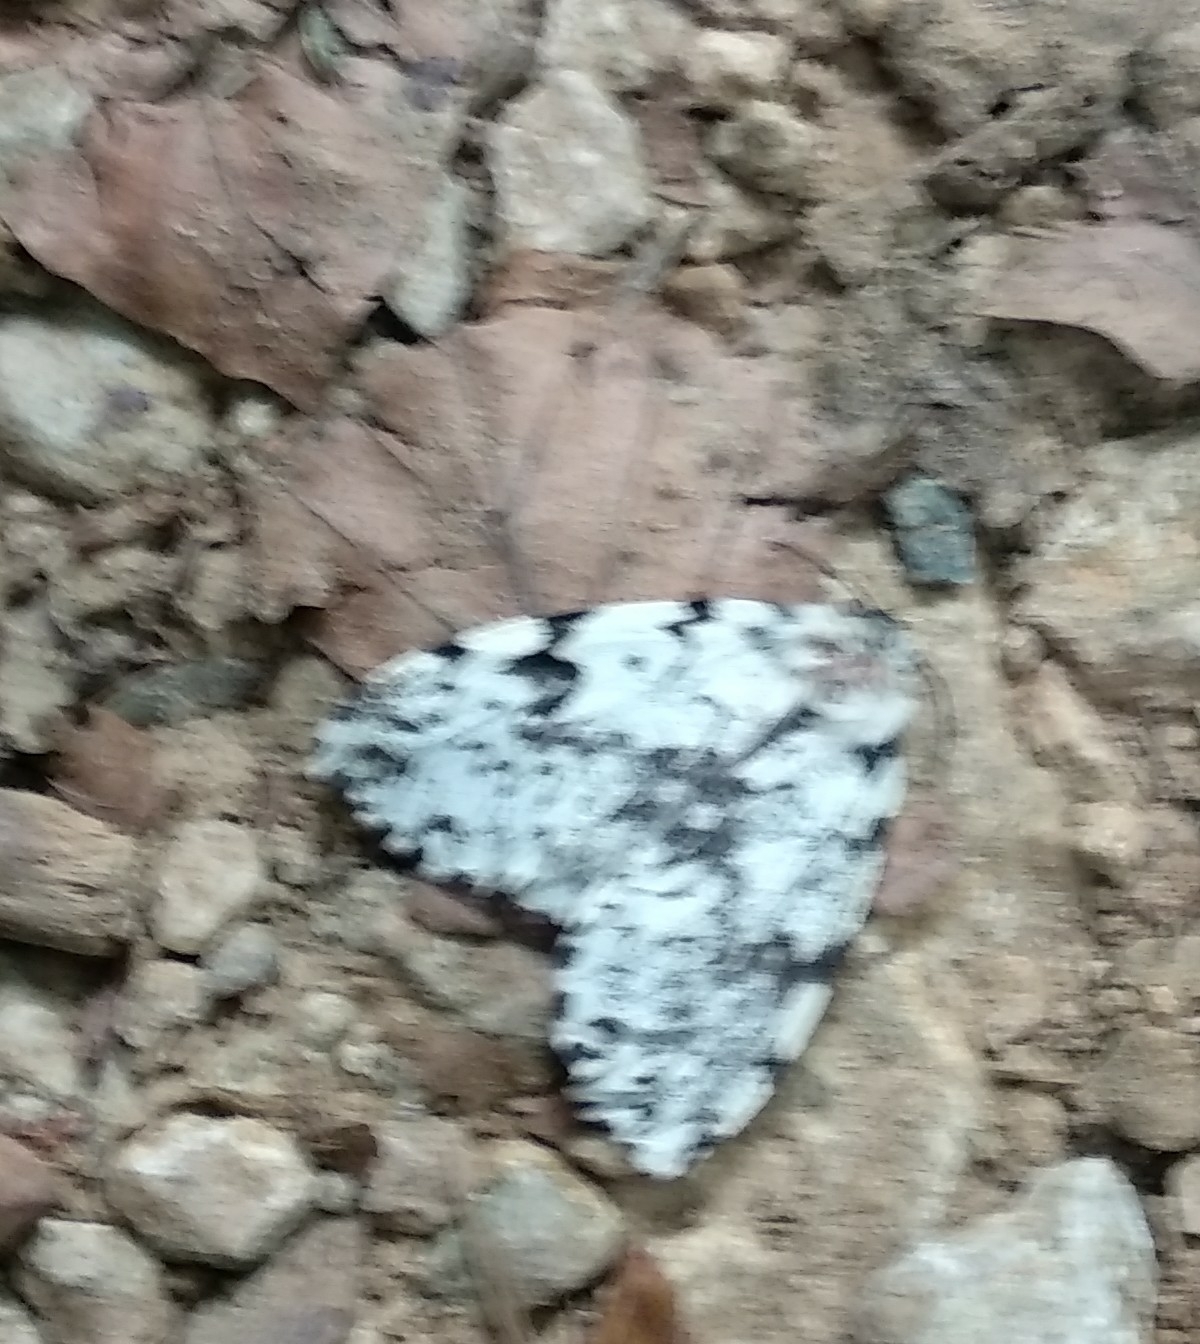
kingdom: Animalia
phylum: Arthropoda
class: Insecta
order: Lepidoptera
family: Erebidae
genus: Lymantria
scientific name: Lymantria monacha
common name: Black arches
